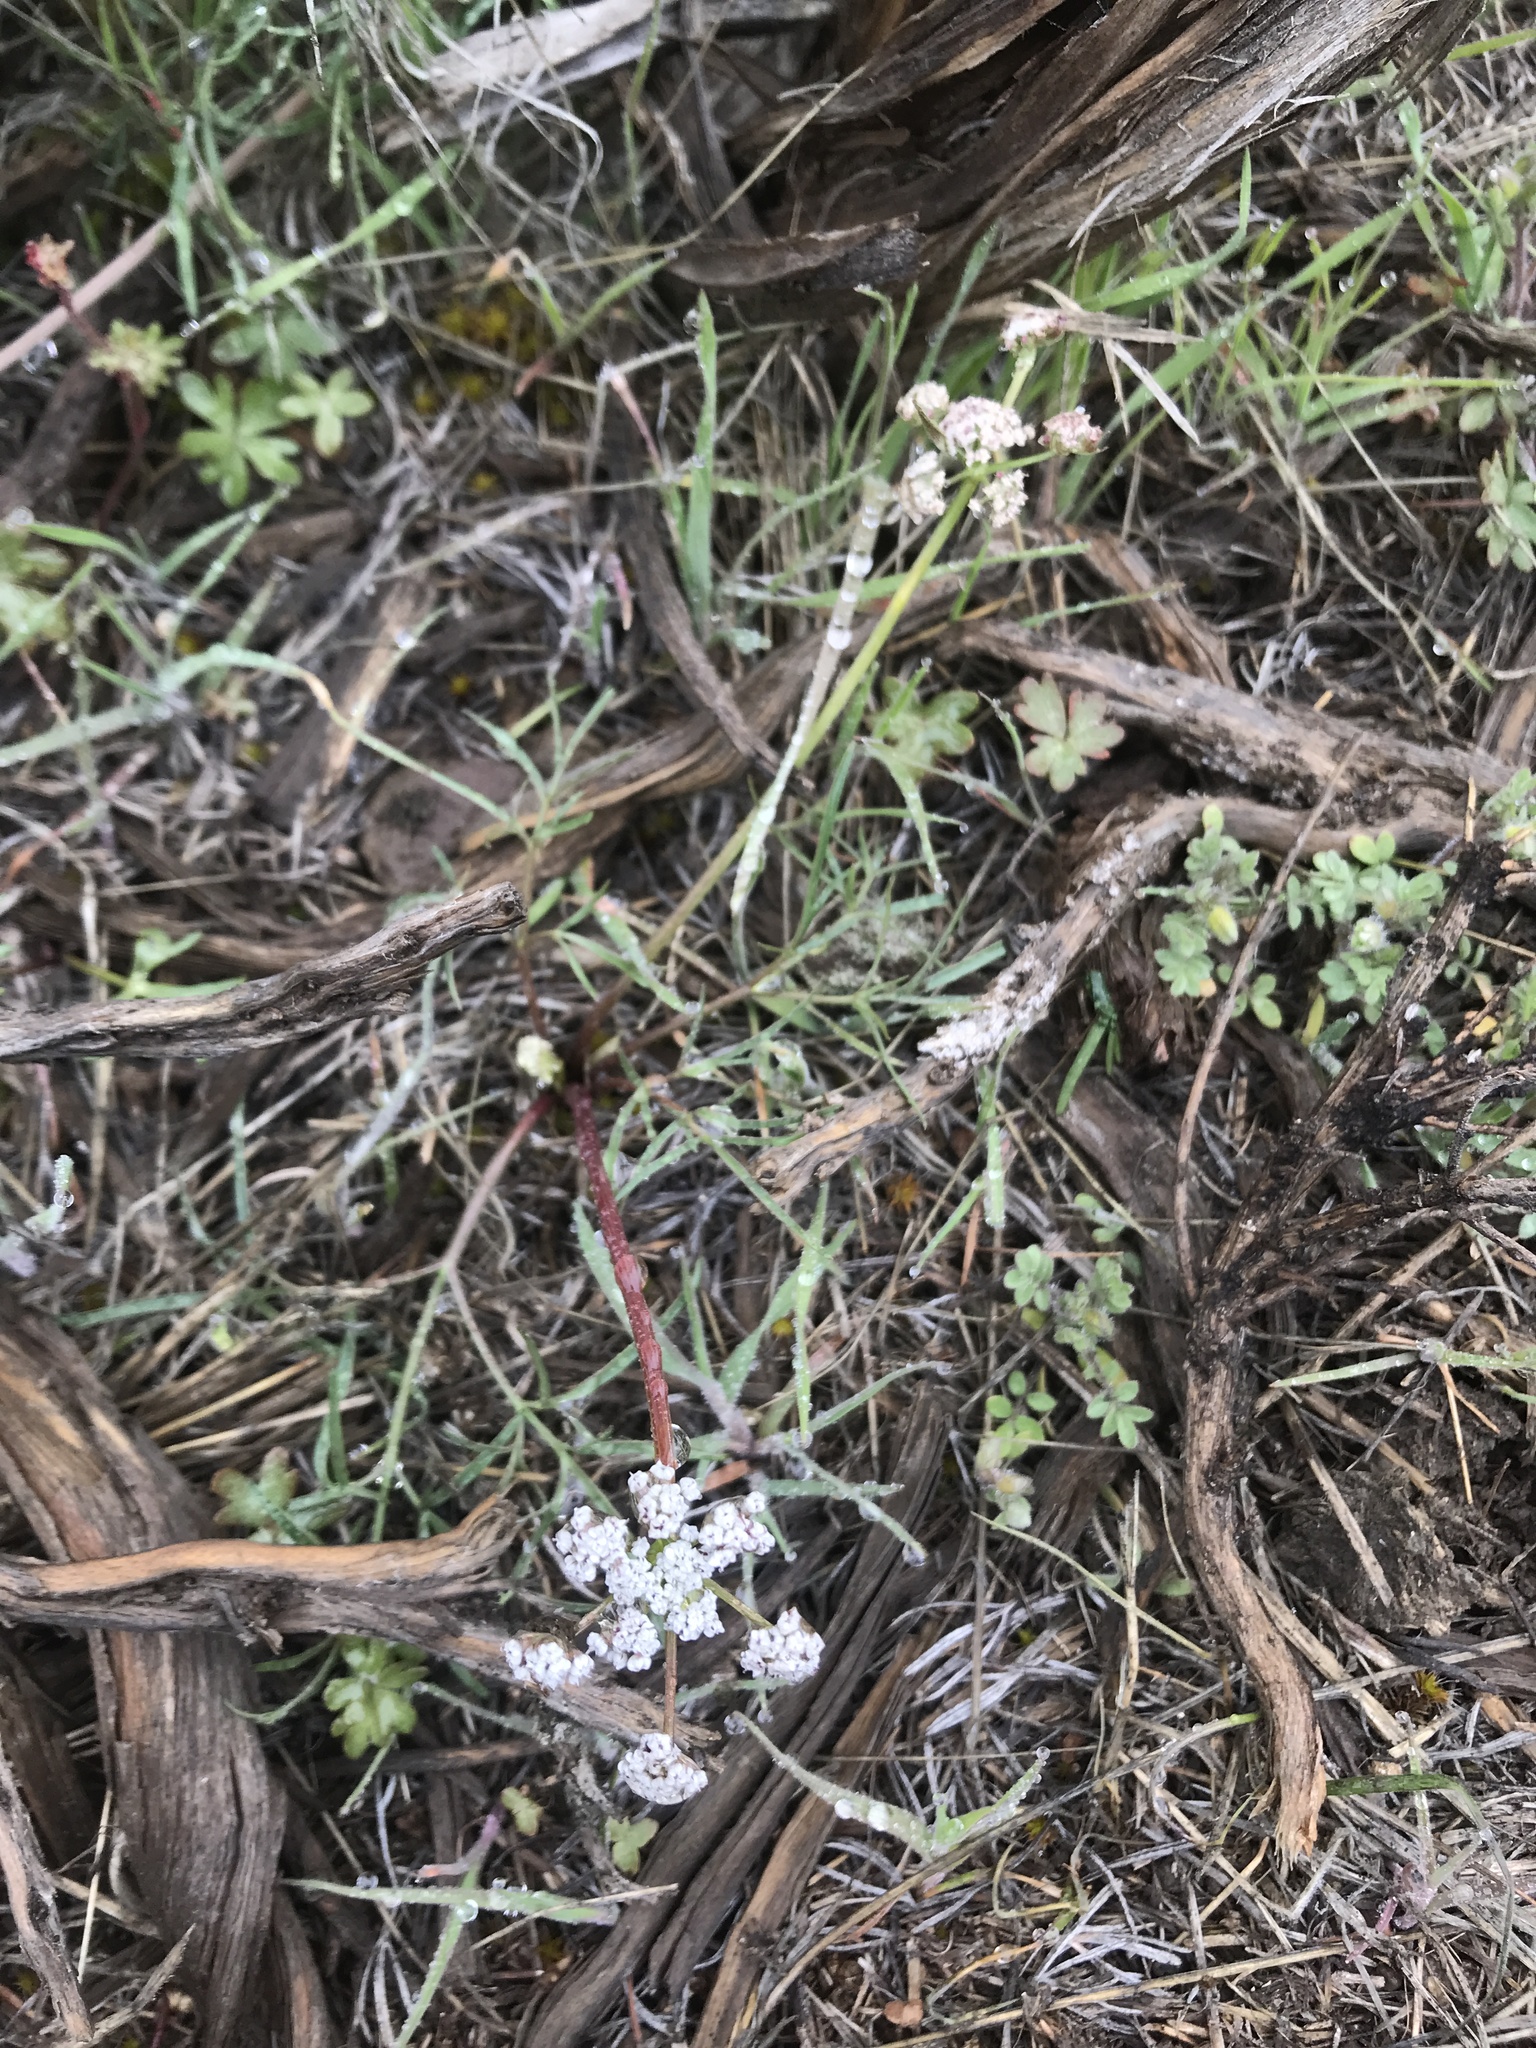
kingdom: Plantae
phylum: Tracheophyta
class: Magnoliopsida
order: Apiales
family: Apiaceae
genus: Lomatium
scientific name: Lomatium geyeri
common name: Geyer's biscuitroot
